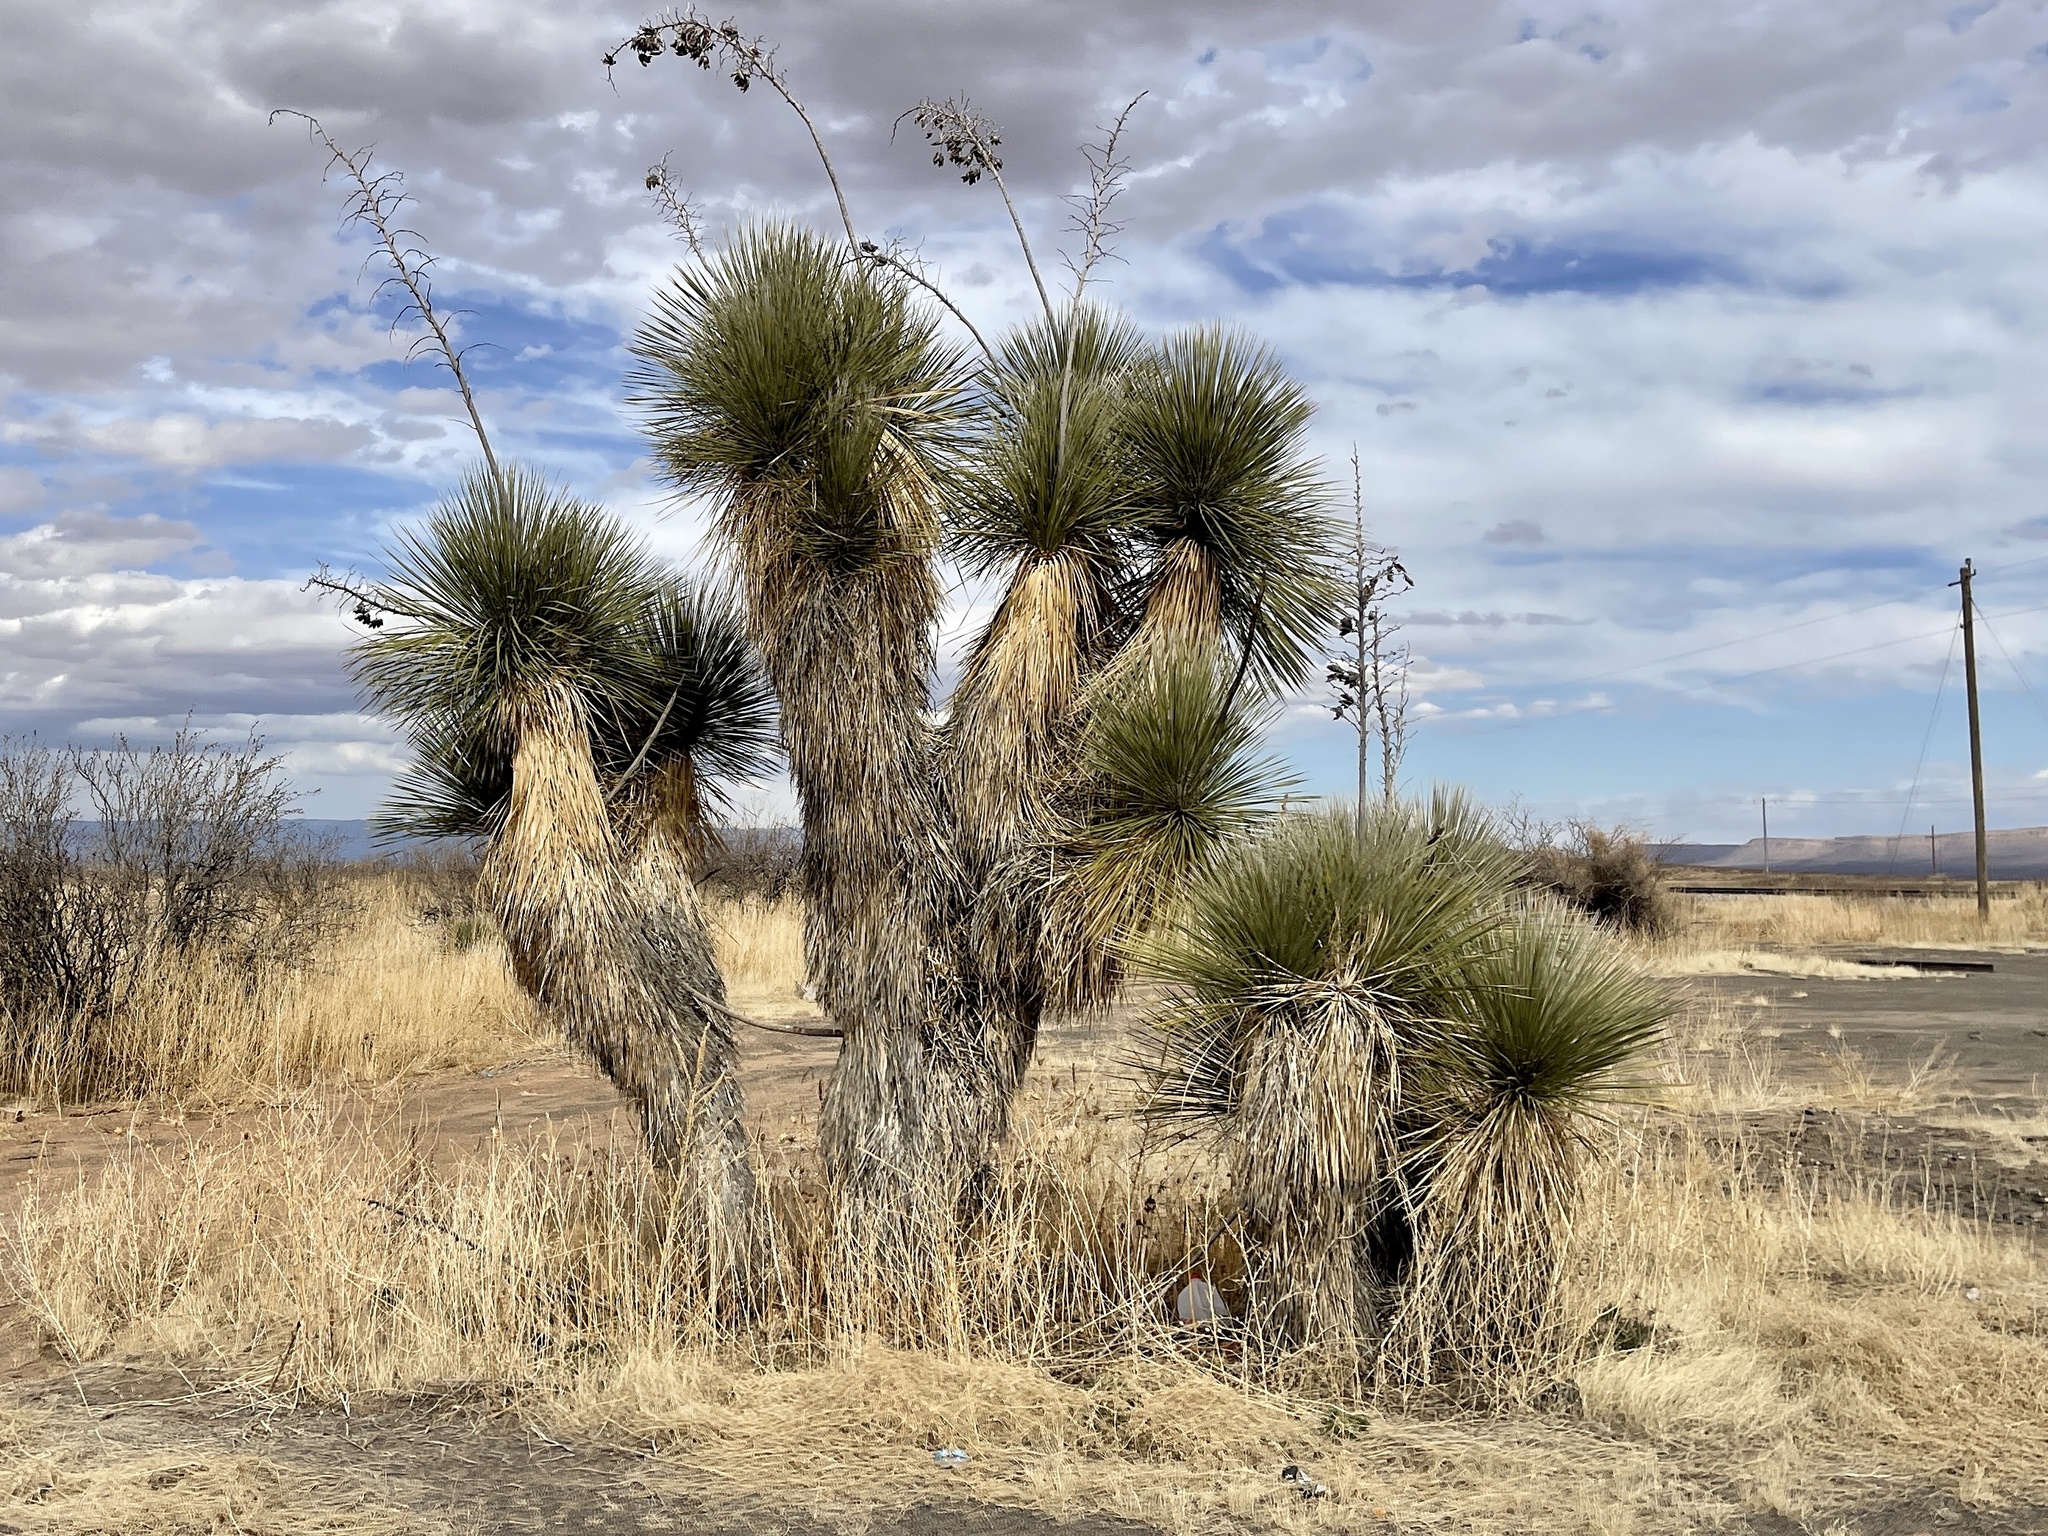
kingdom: Plantae
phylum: Tracheophyta
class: Liliopsida
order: Asparagales
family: Asparagaceae
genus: Yucca
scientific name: Yucca elata
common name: Palmella
